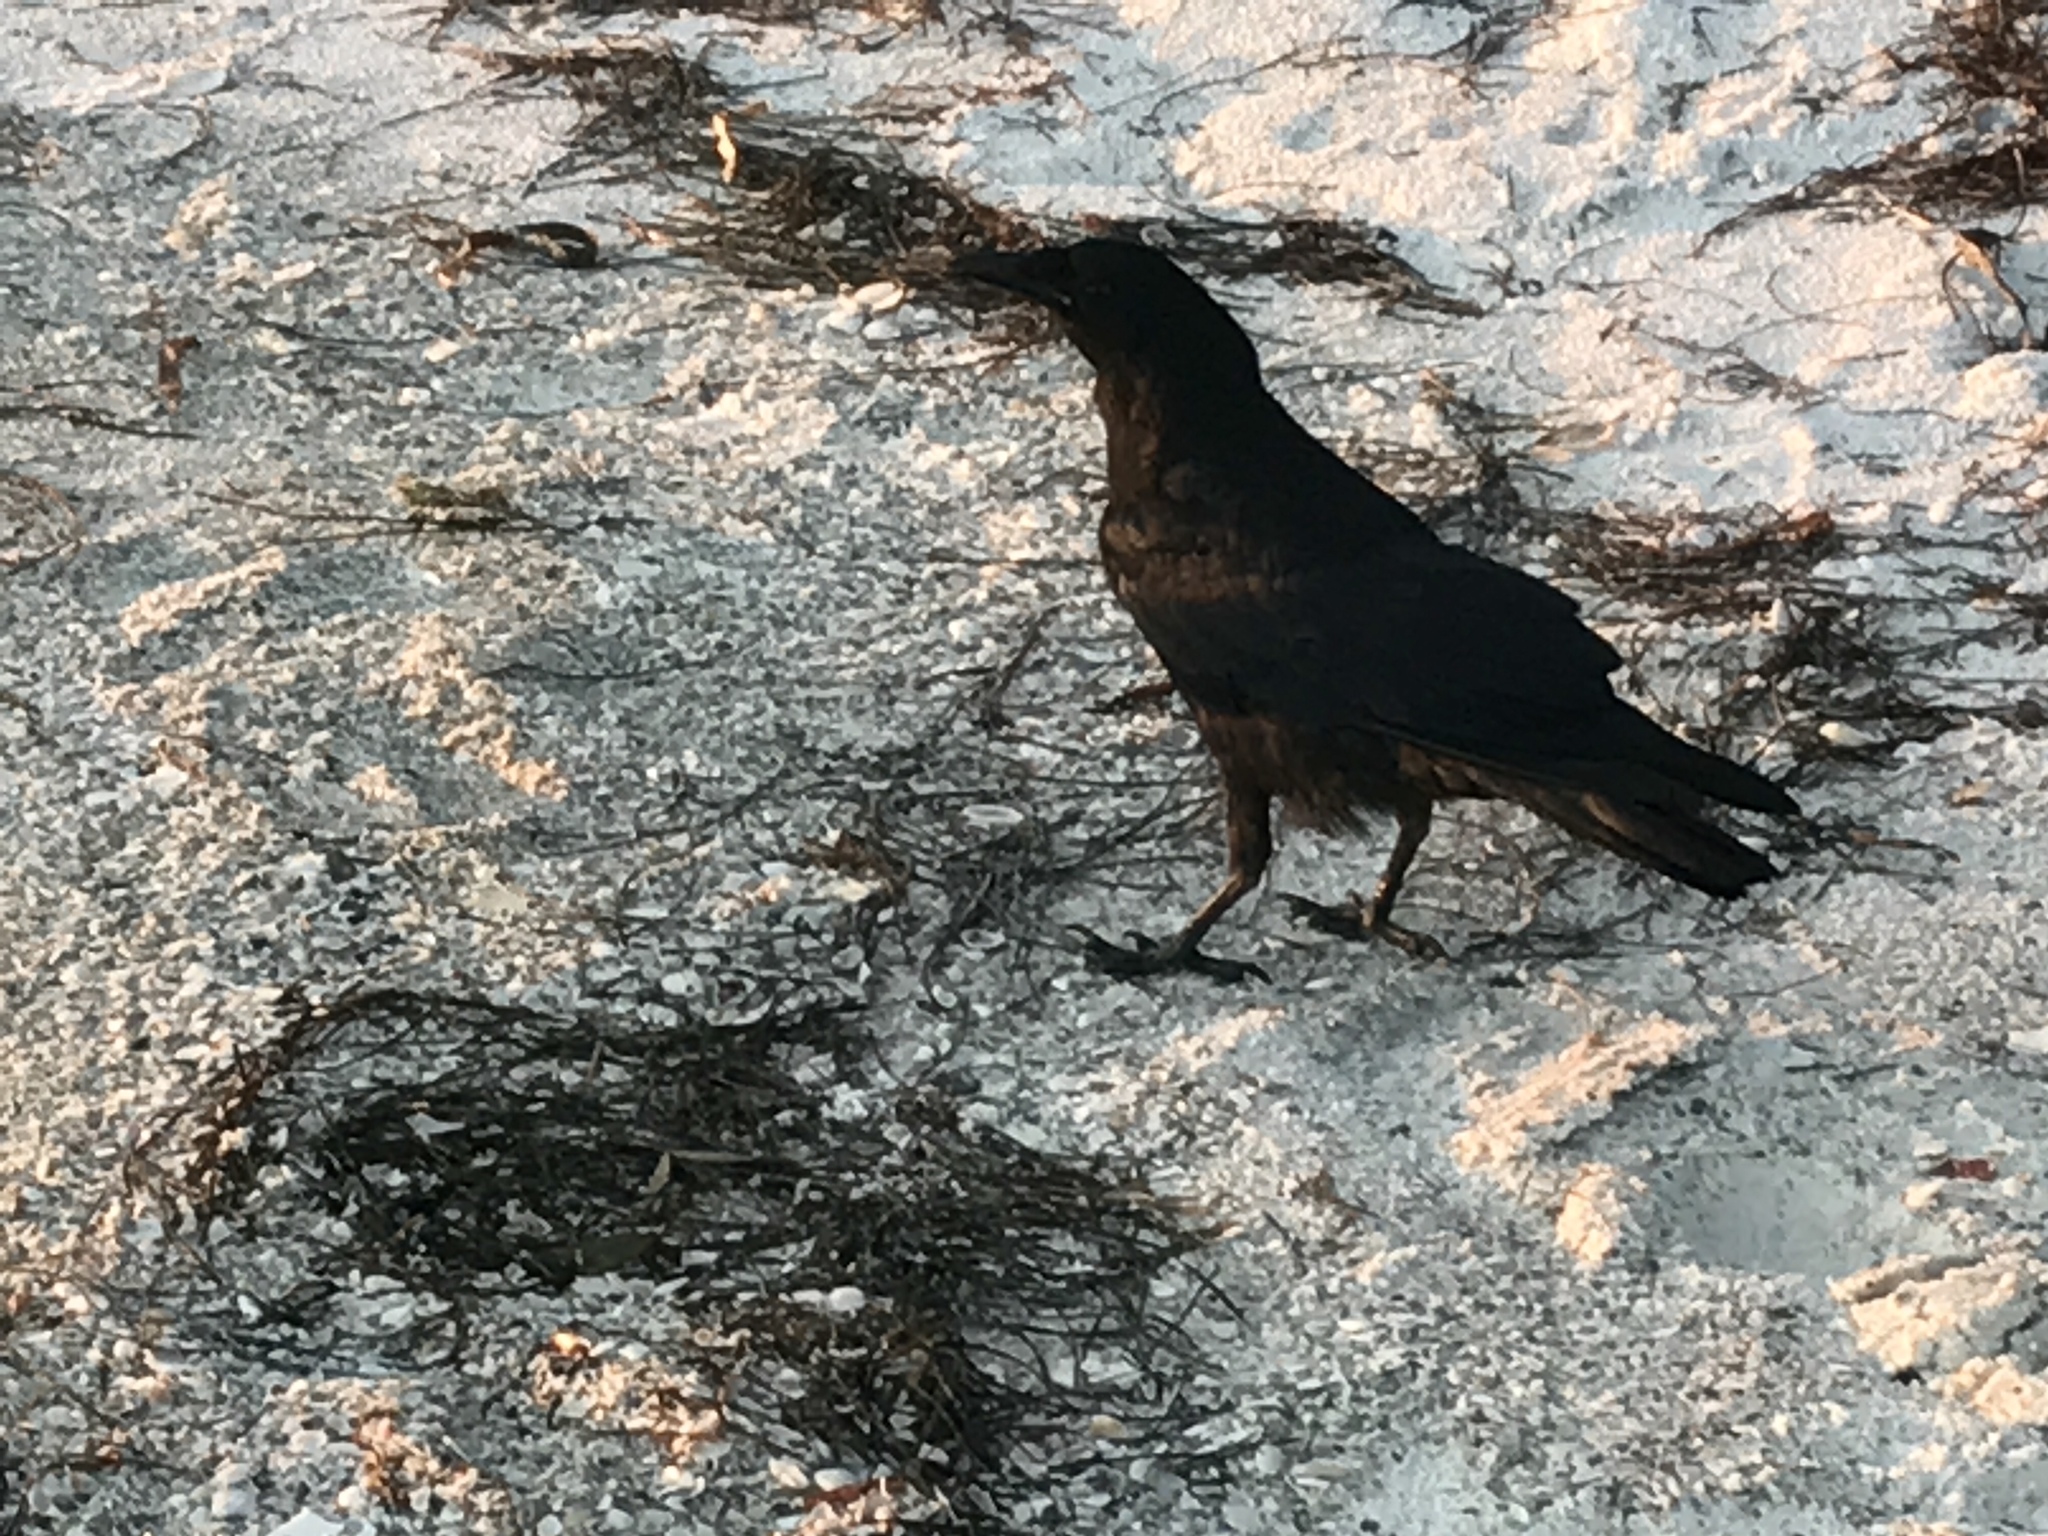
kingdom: Animalia
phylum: Chordata
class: Aves
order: Passeriformes
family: Corvidae
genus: Corvus
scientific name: Corvus
